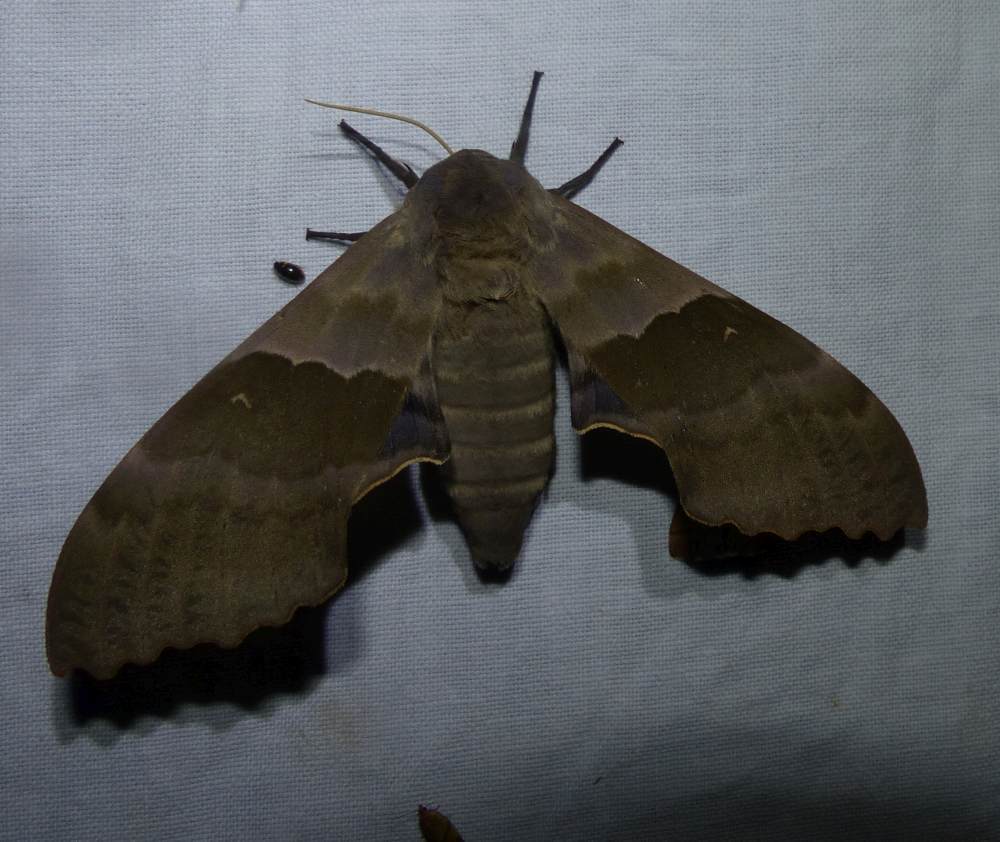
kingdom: Animalia
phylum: Arthropoda
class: Insecta
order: Lepidoptera
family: Sphingidae
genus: Pachysphinx
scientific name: Pachysphinx modesta
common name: Big poplar sphinx
